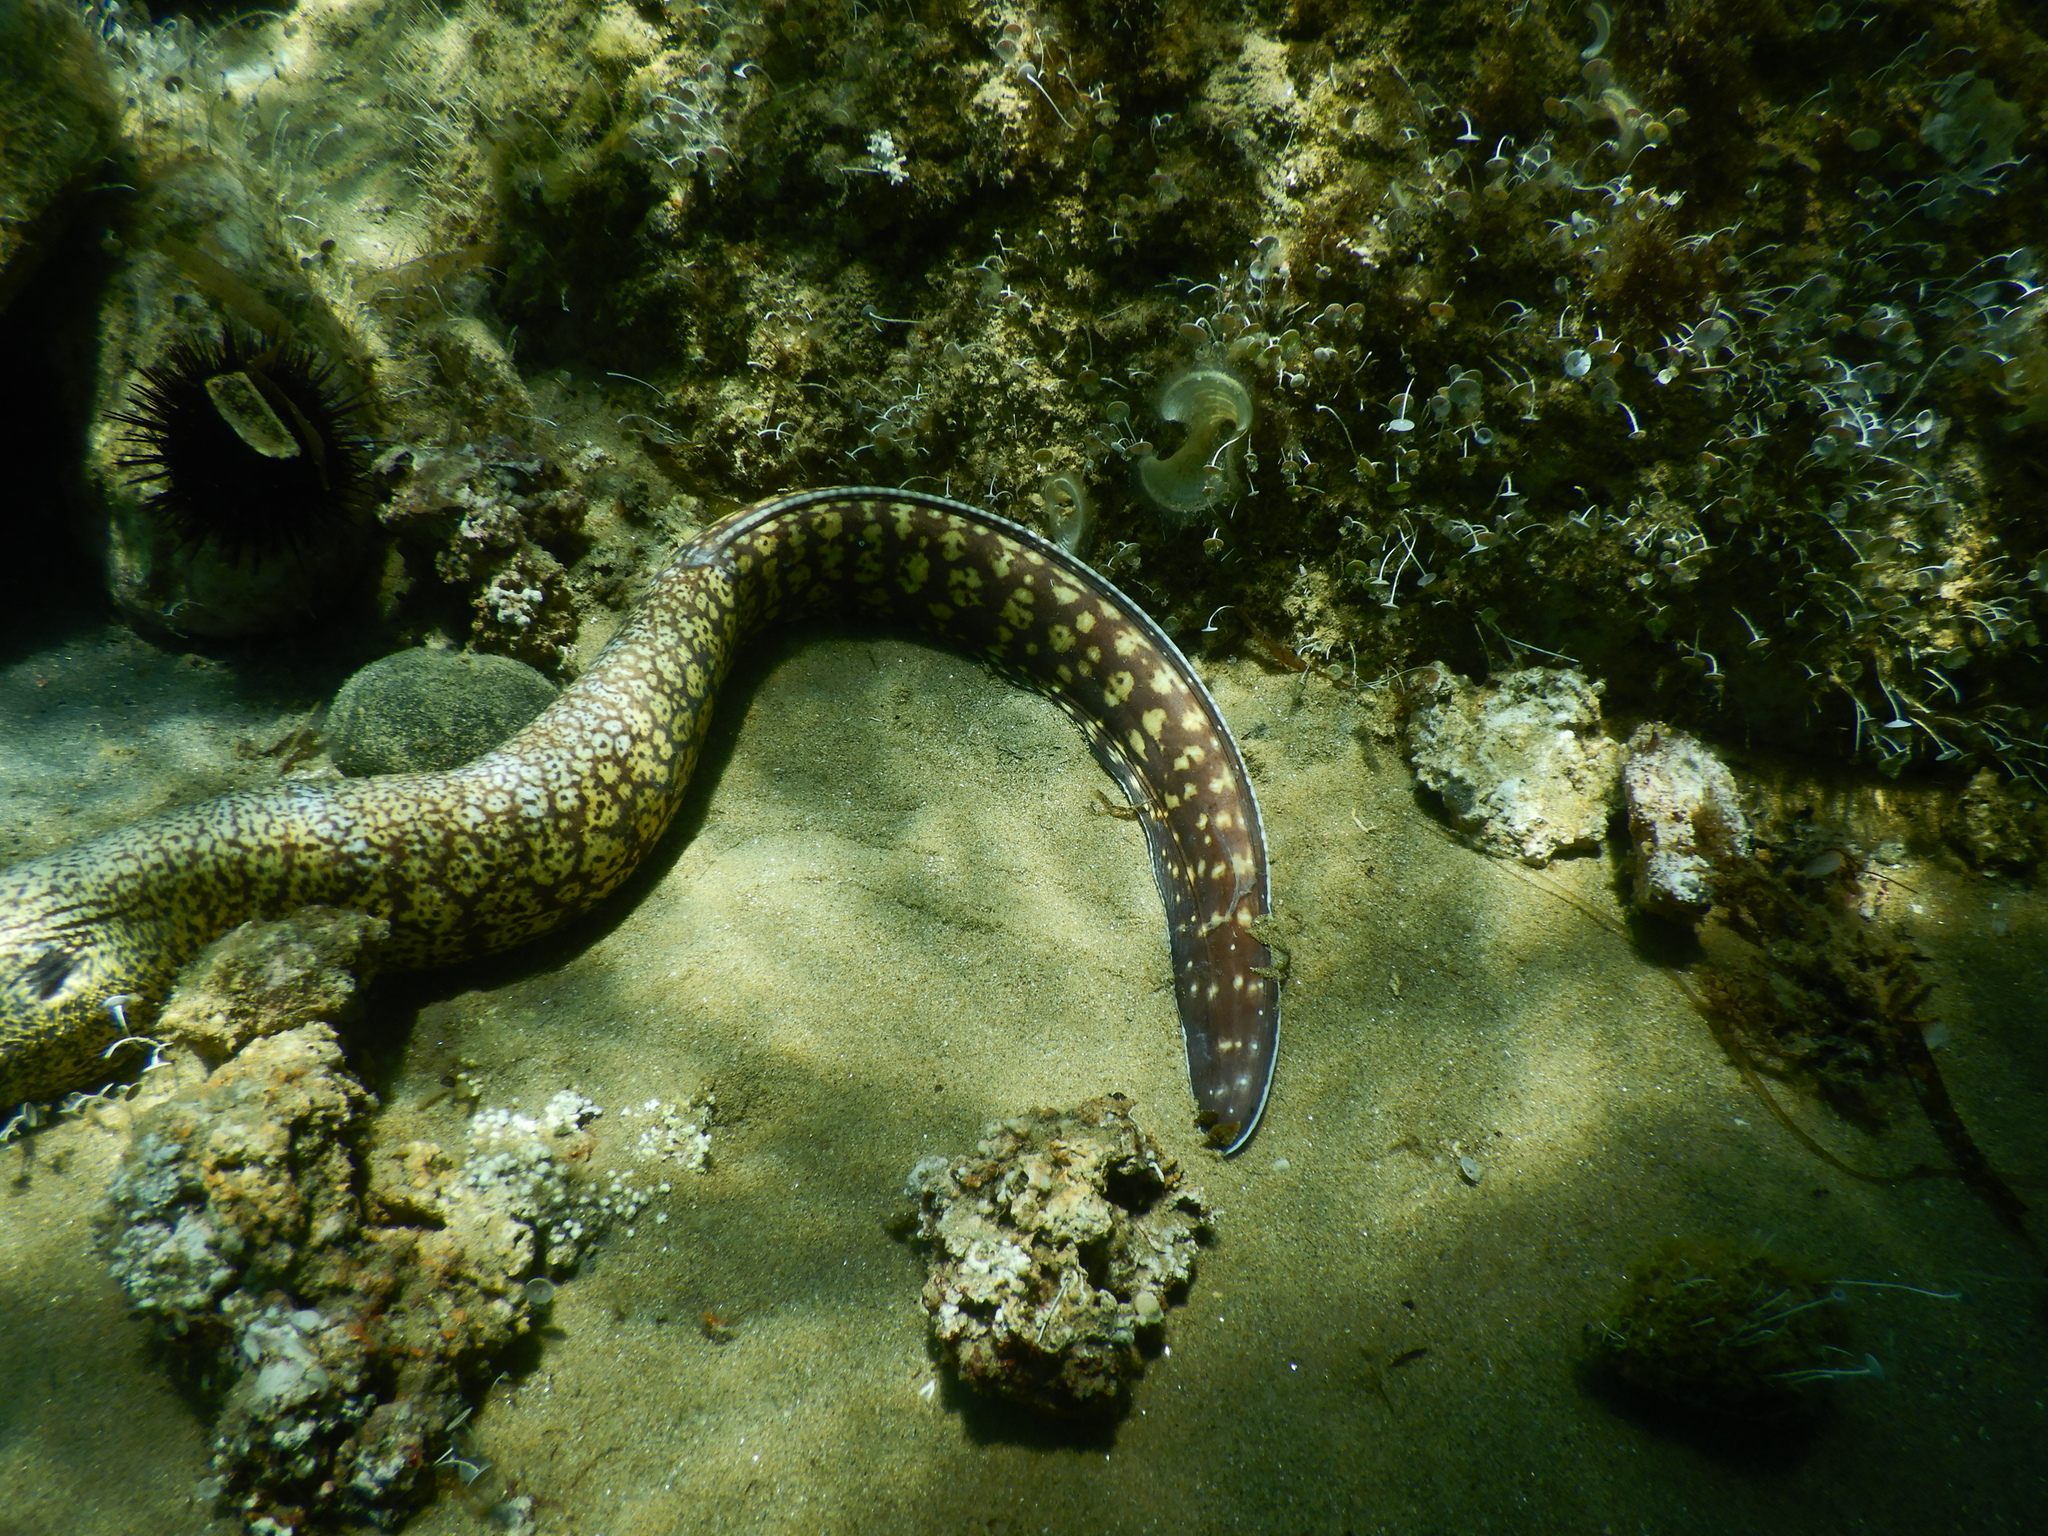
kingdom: Animalia
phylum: Chordata
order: Anguilliformes
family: Muraenidae
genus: Muraena
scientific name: Muraena helena
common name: Mediterranean moray
